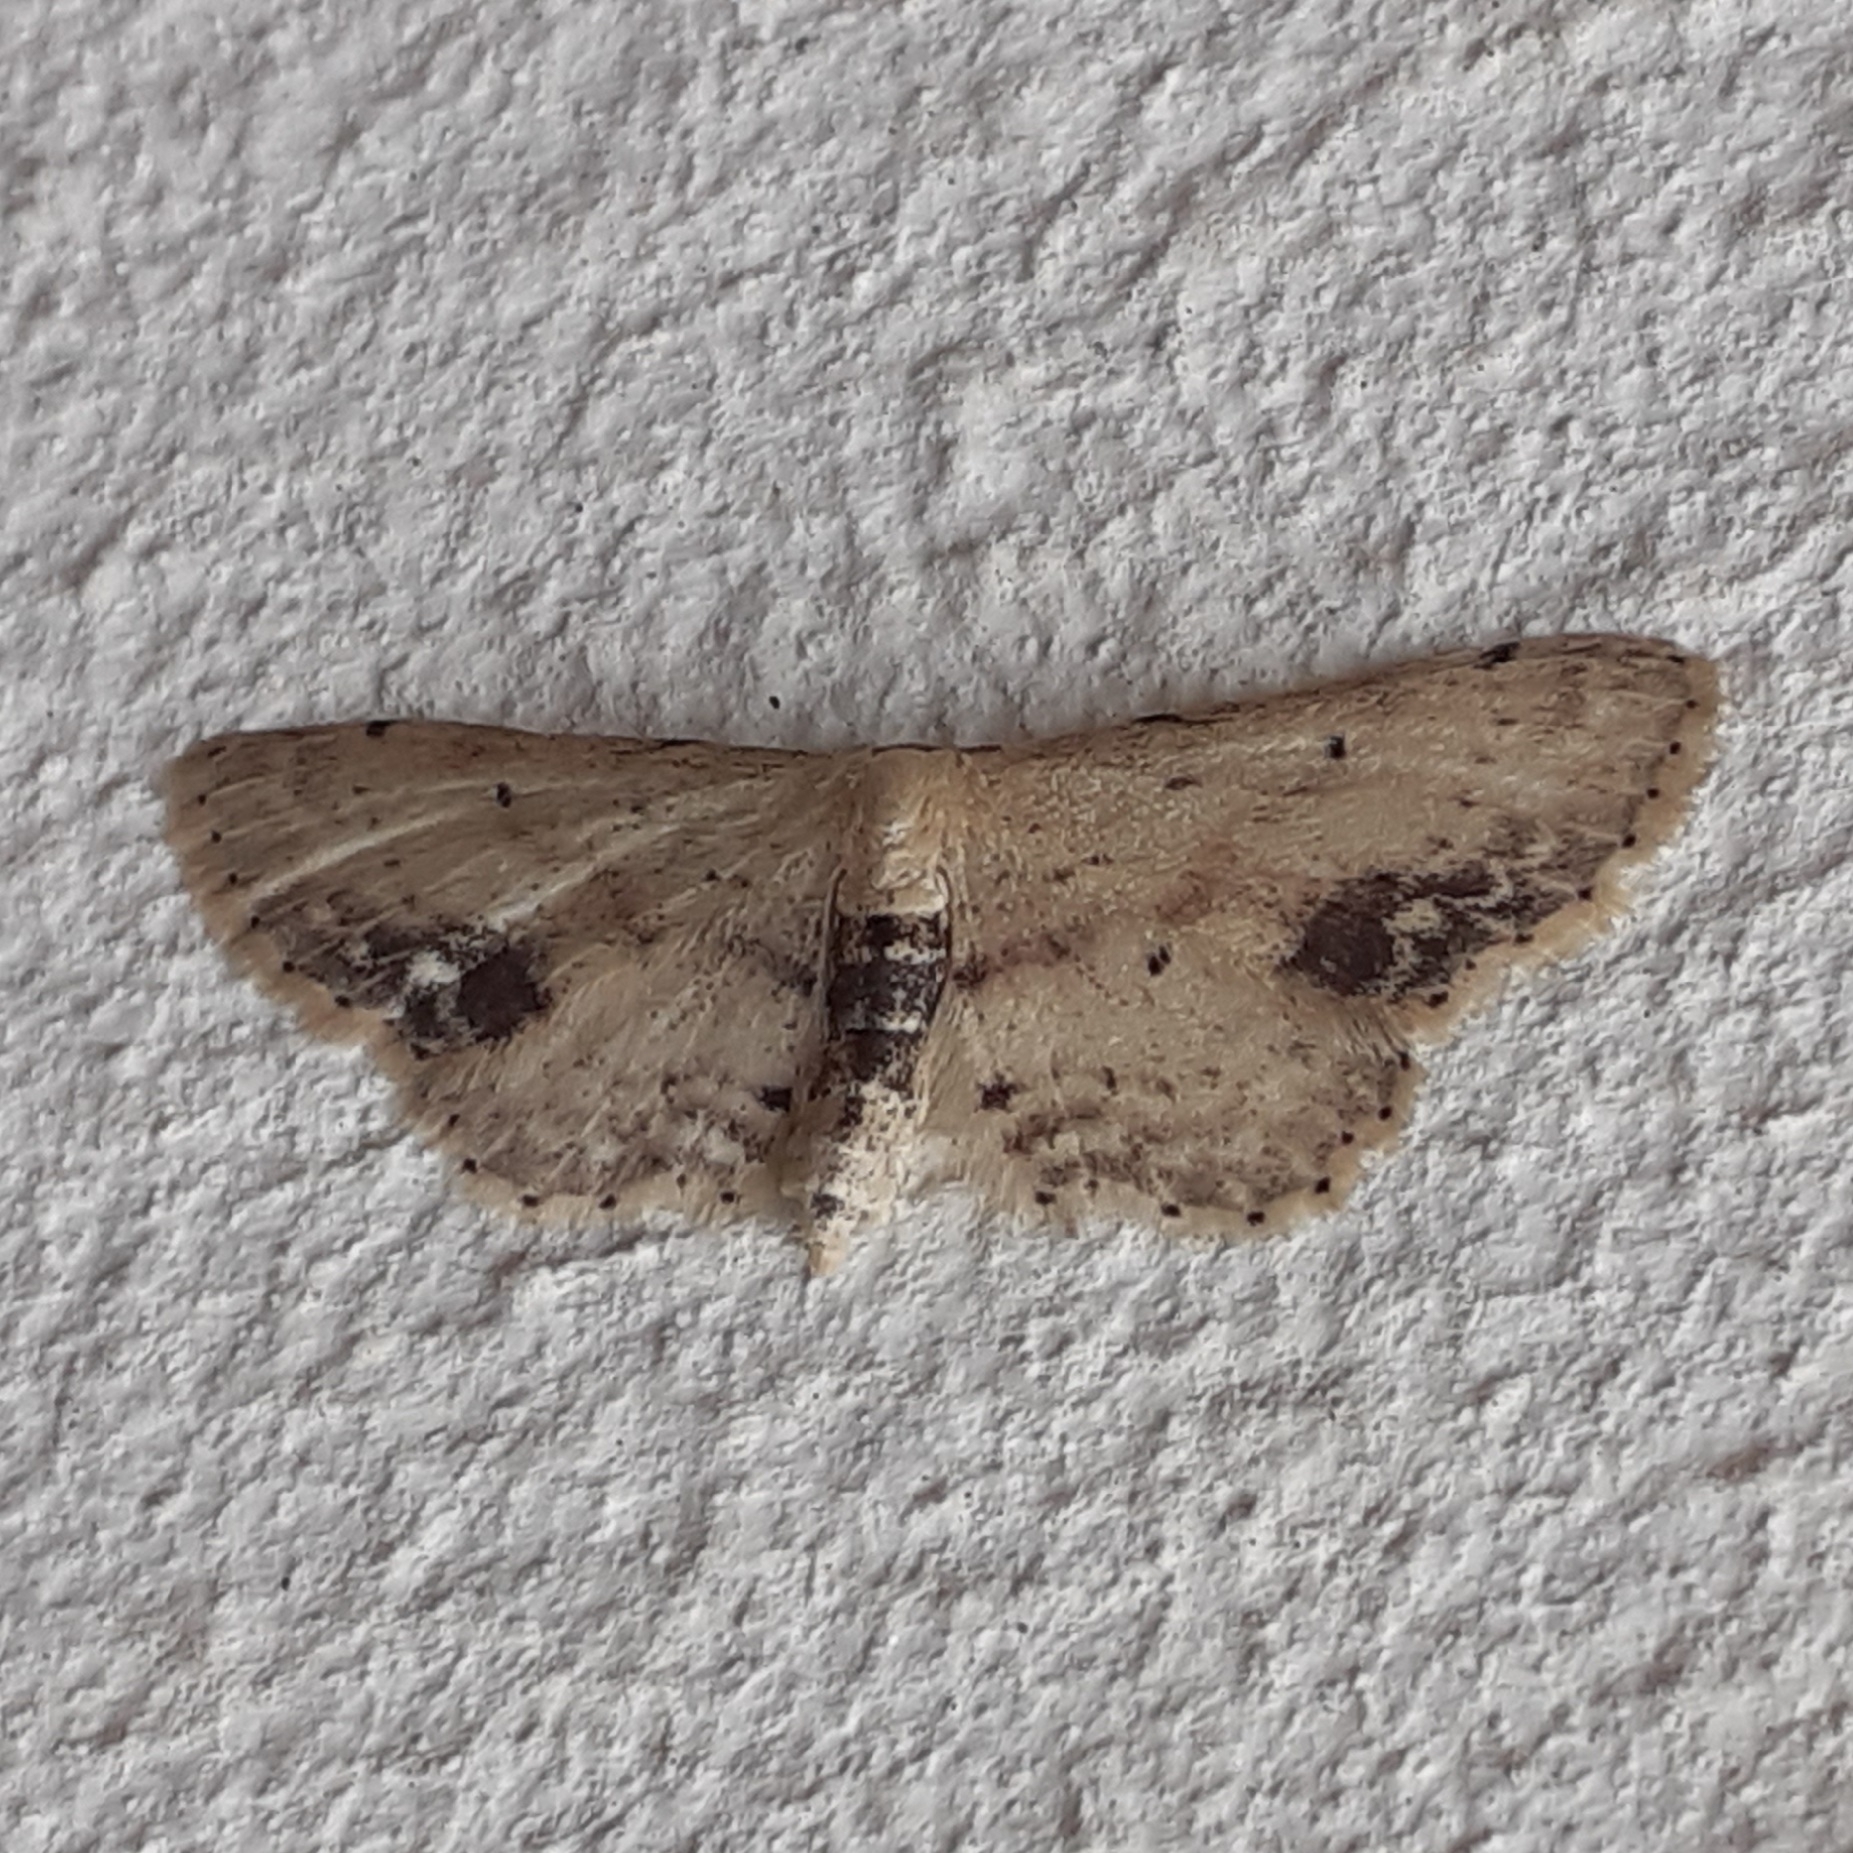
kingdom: Animalia
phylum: Arthropoda
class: Insecta
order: Lepidoptera
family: Geometridae
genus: Idaea
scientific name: Idaea dimidiata
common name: Single-dotted wave
